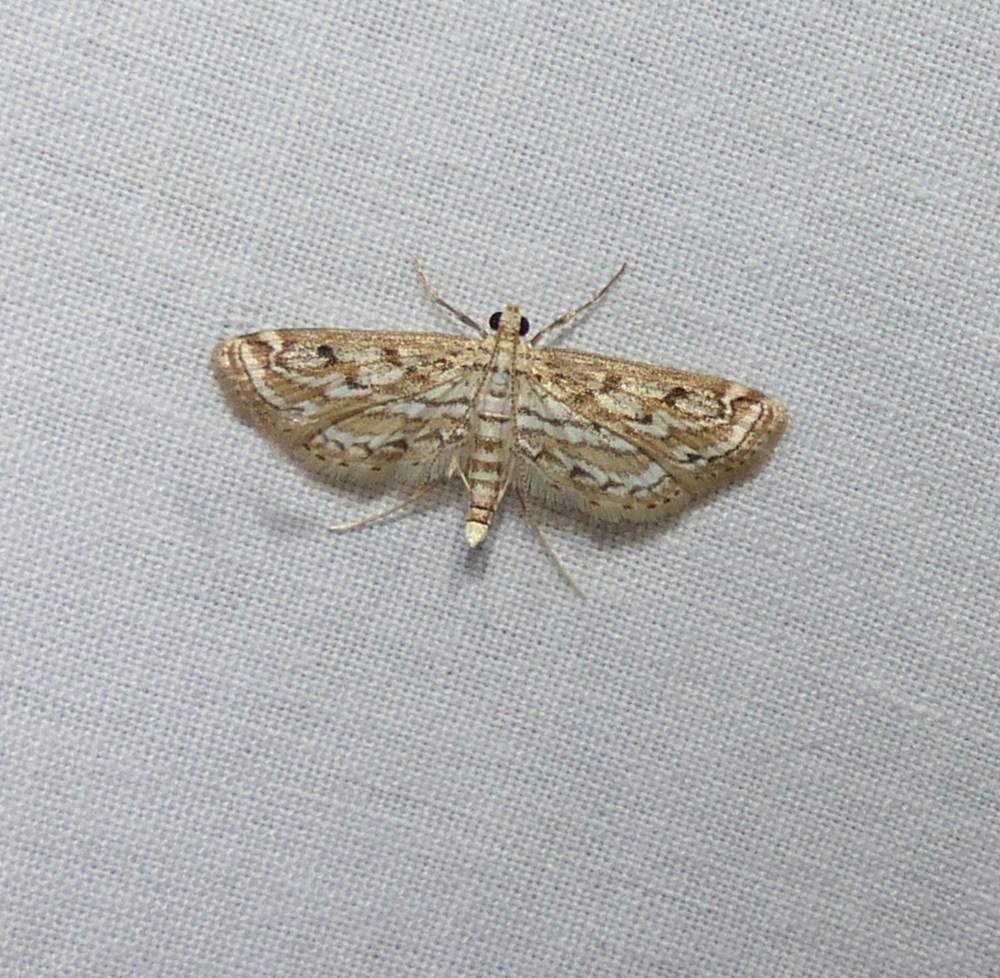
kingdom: Animalia
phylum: Arthropoda
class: Insecta
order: Lepidoptera
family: Crambidae
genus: Parapoynx
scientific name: Parapoynx allionealis
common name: Bladderwort casemaker
